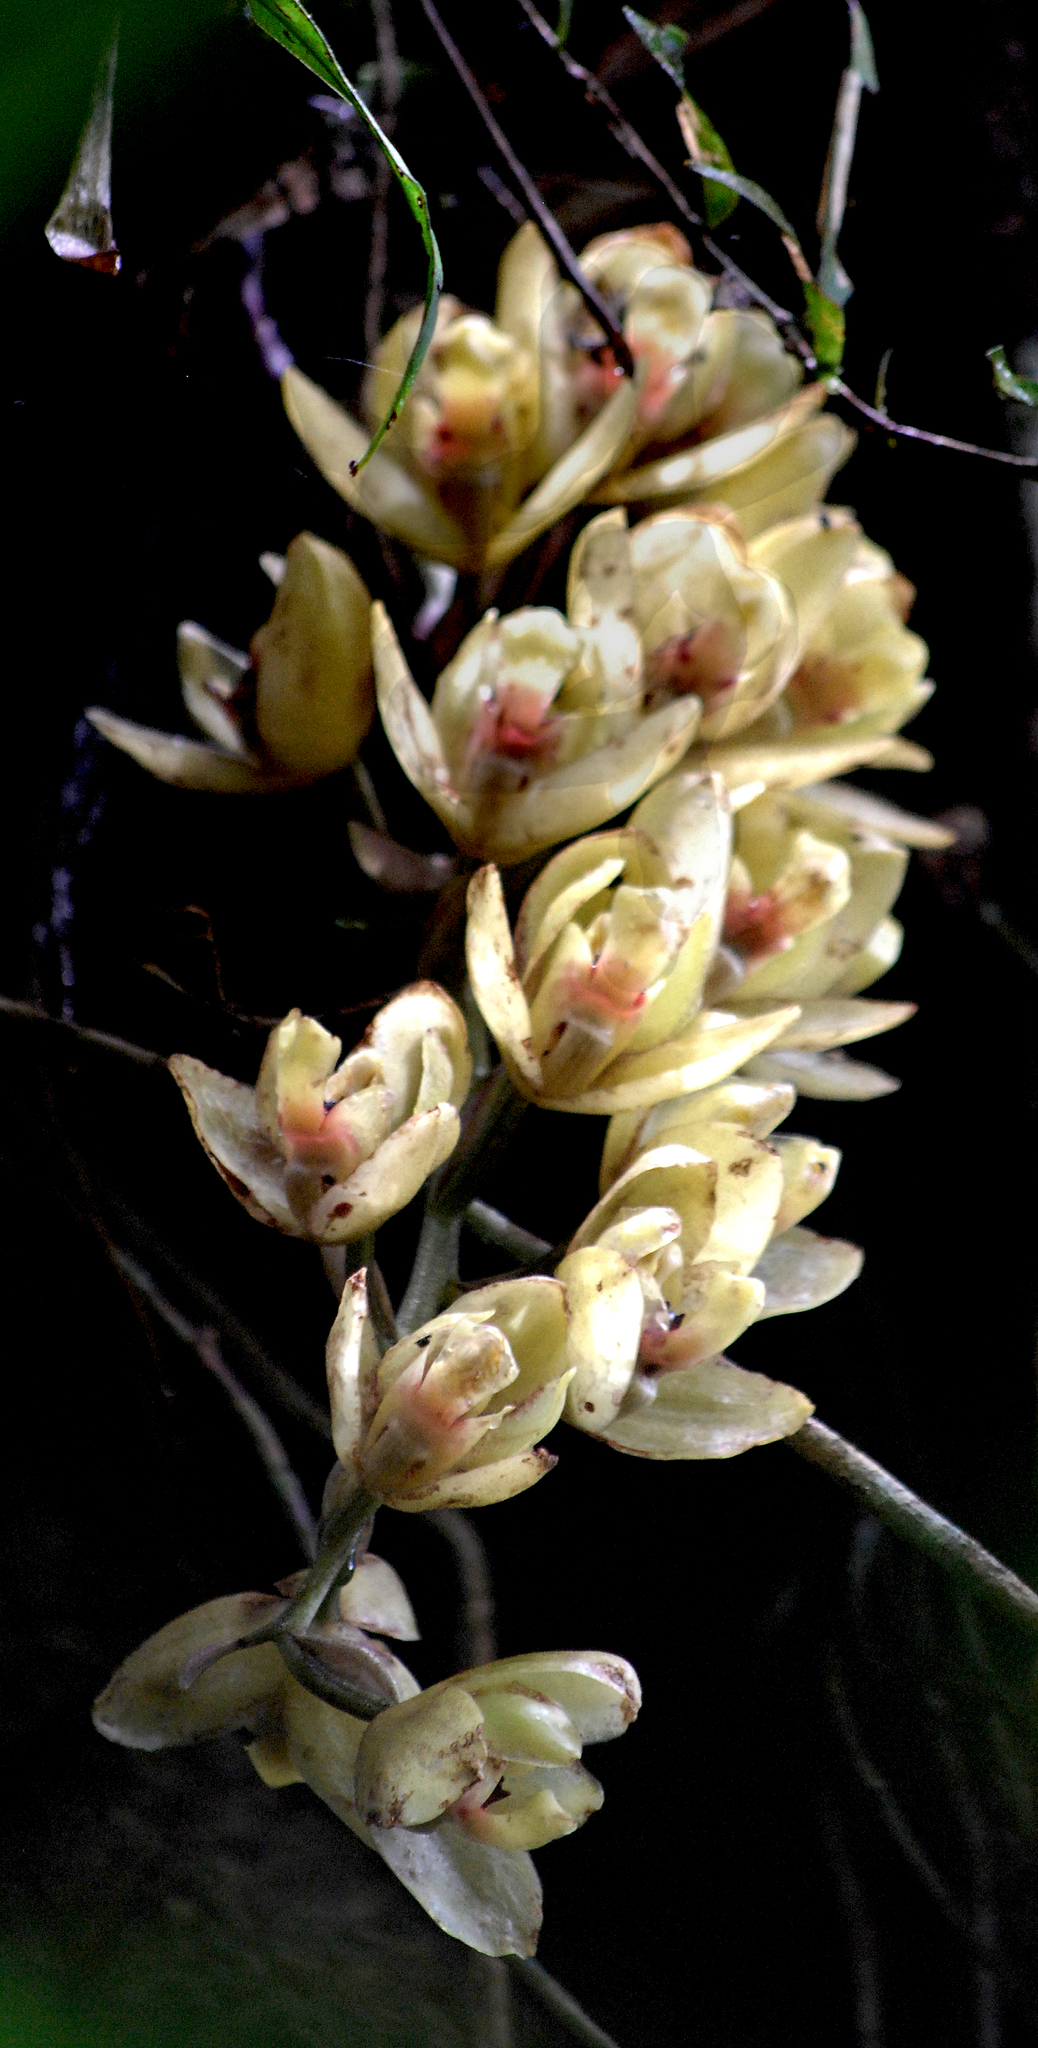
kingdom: Plantae
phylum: Tracheophyta
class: Liliopsida
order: Asparagales
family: Orchidaceae
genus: Acineta
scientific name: Acineta cryptodonta
